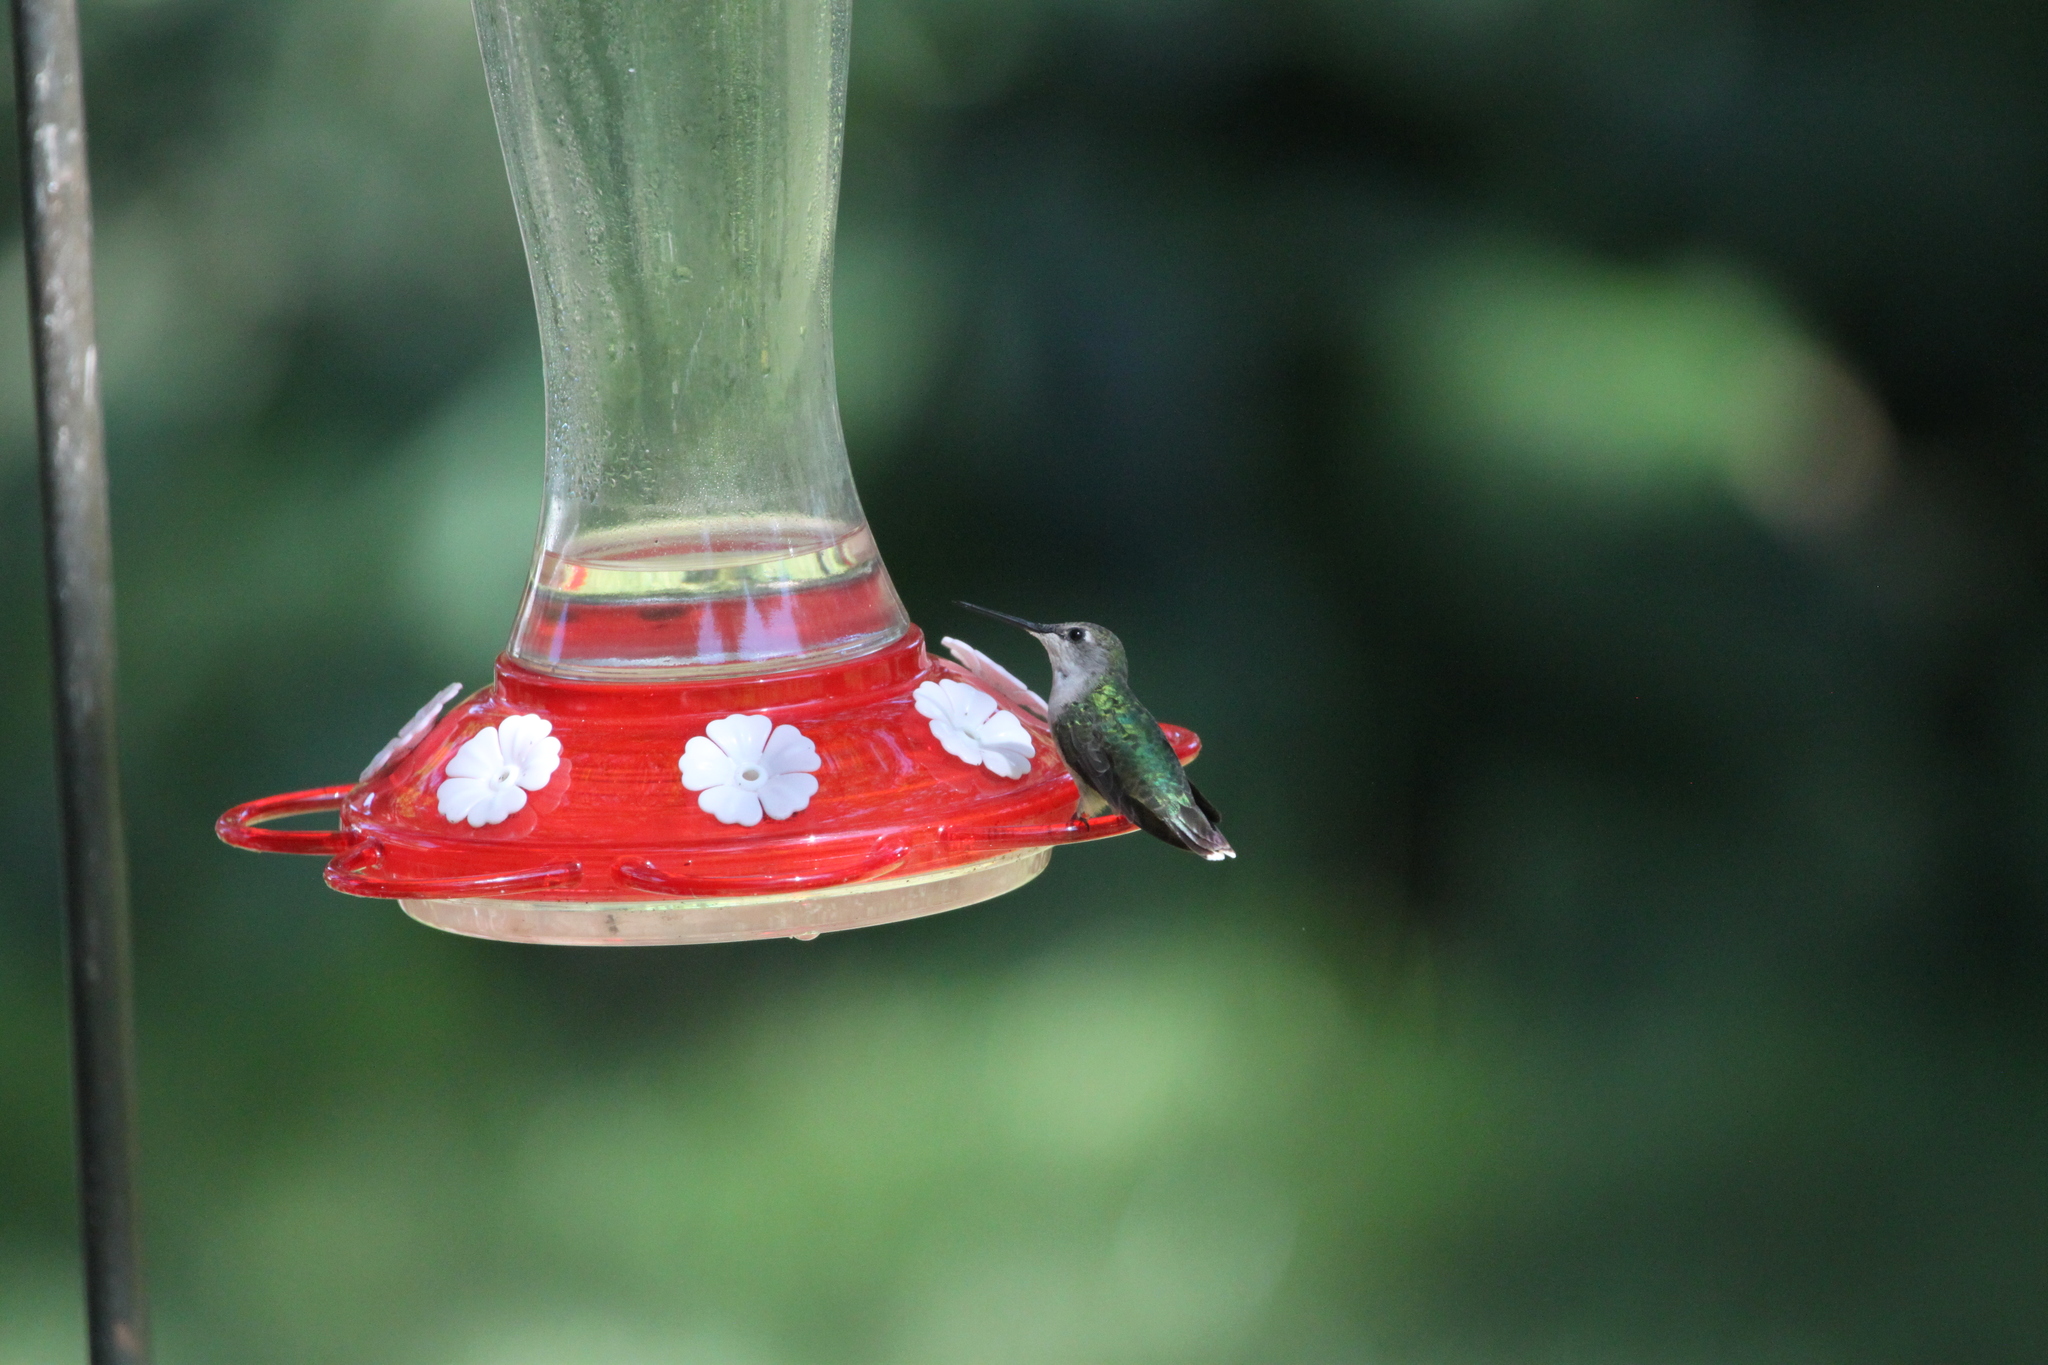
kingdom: Animalia
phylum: Chordata
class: Aves
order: Apodiformes
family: Trochilidae
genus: Archilochus
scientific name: Archilochus colubris
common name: Ruby-throated hummingbird
